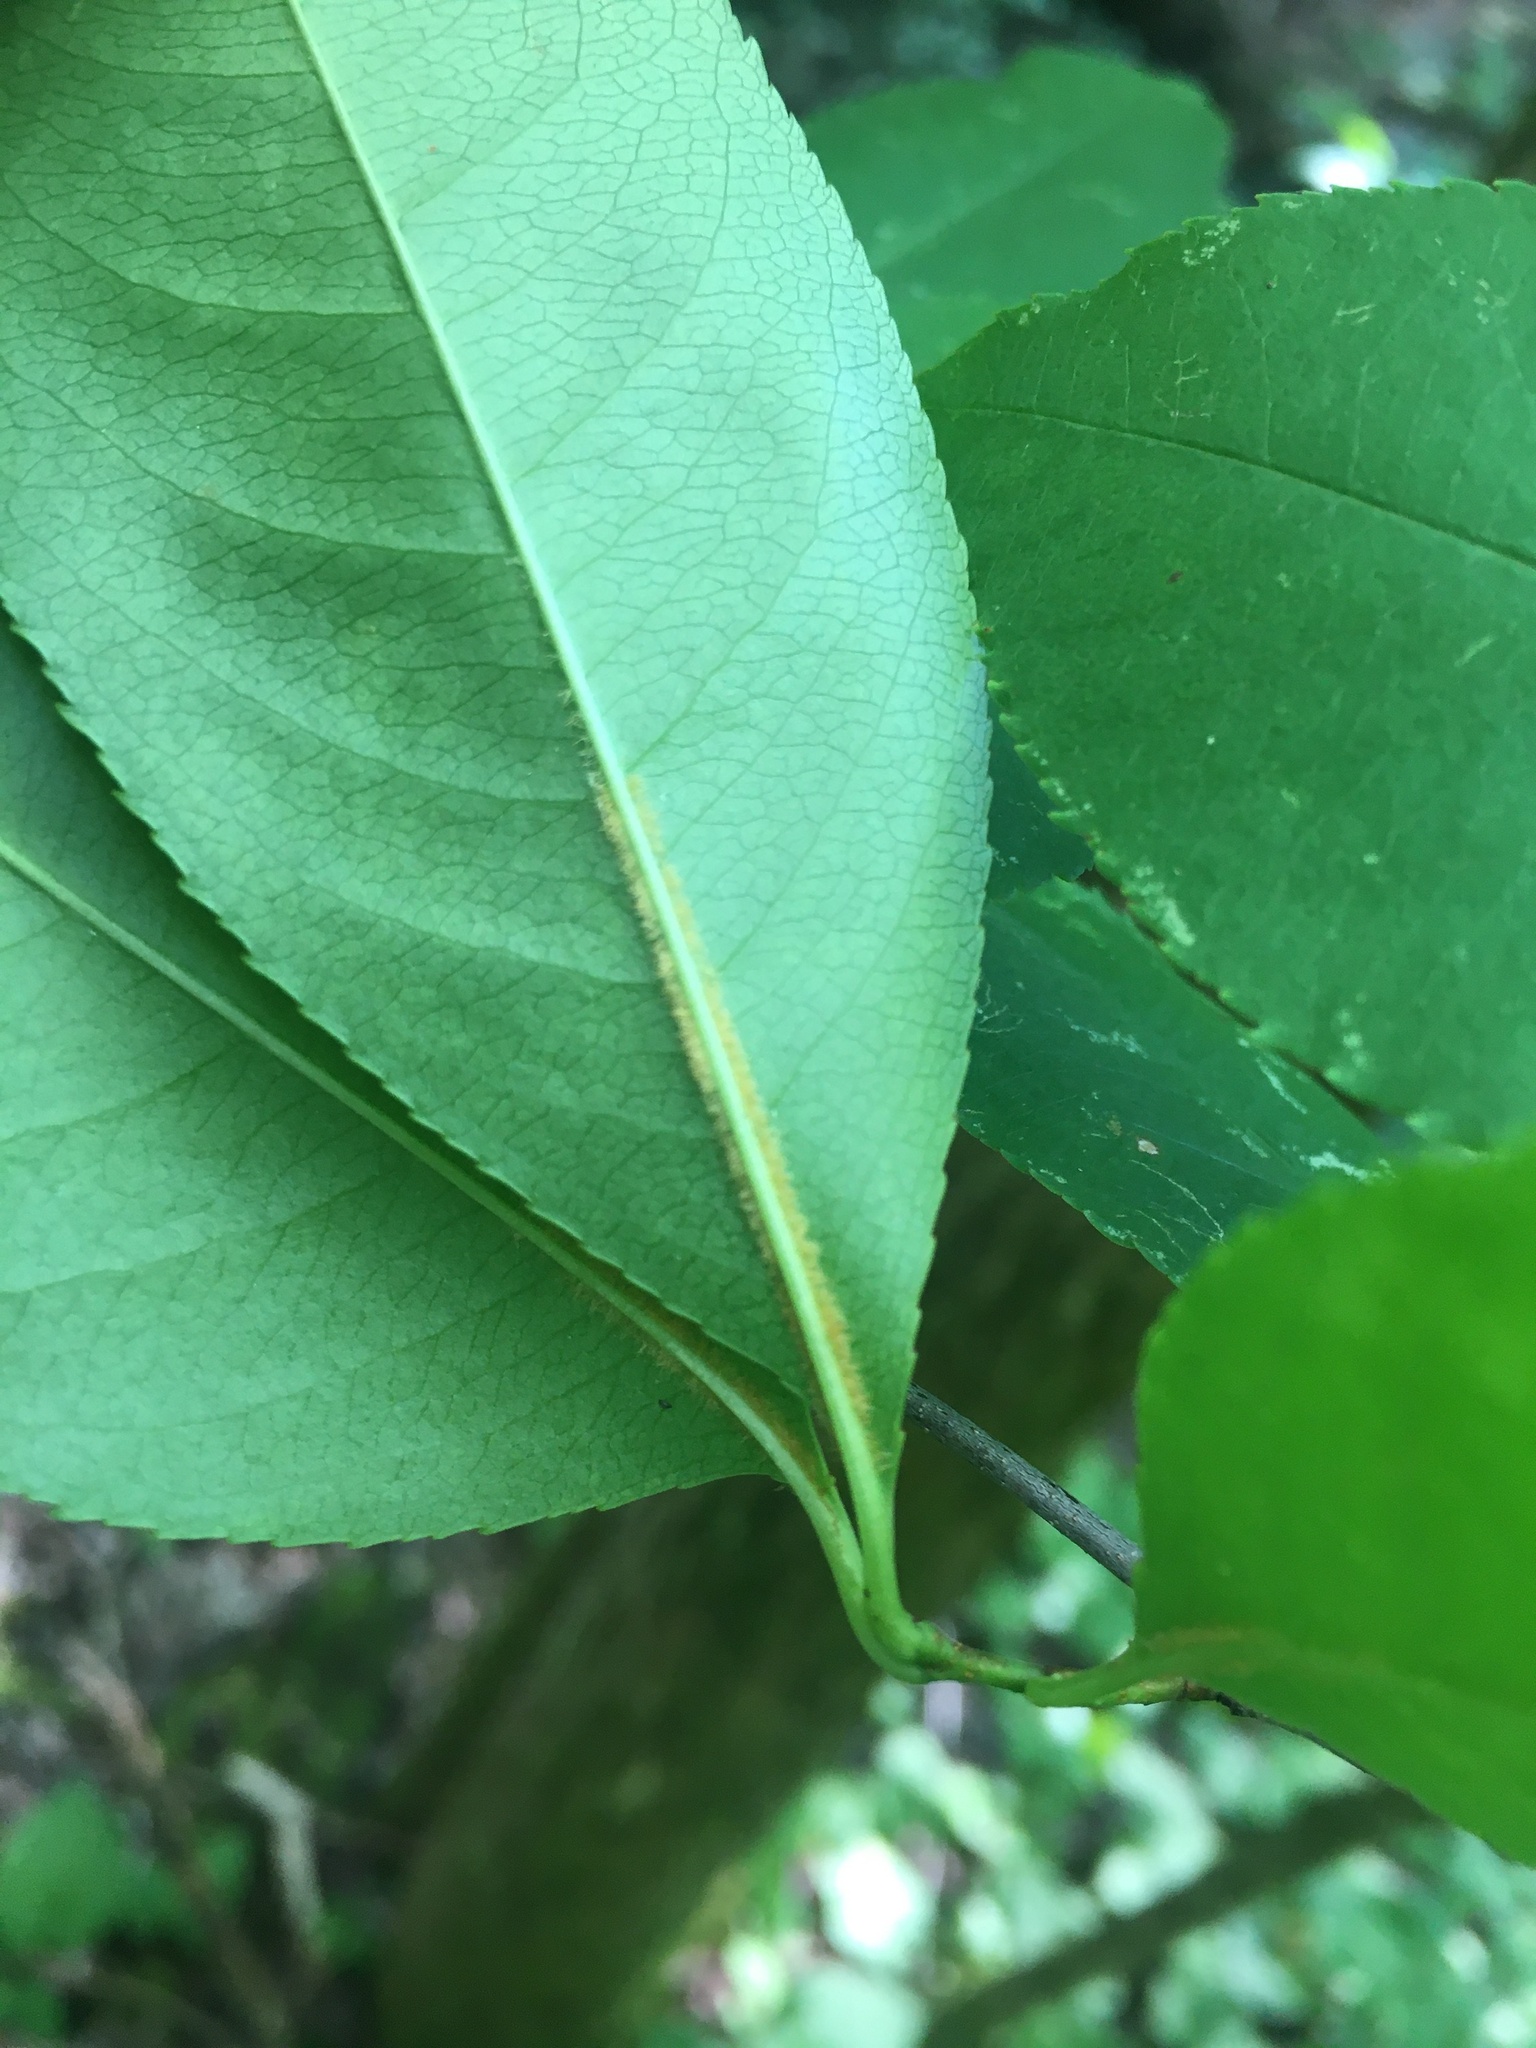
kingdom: Plantae
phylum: Tracheophyta
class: Magnoliopsida
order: Rosales
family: Rosaceae
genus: Prunus
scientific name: Prunus serotina
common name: Black cherry
